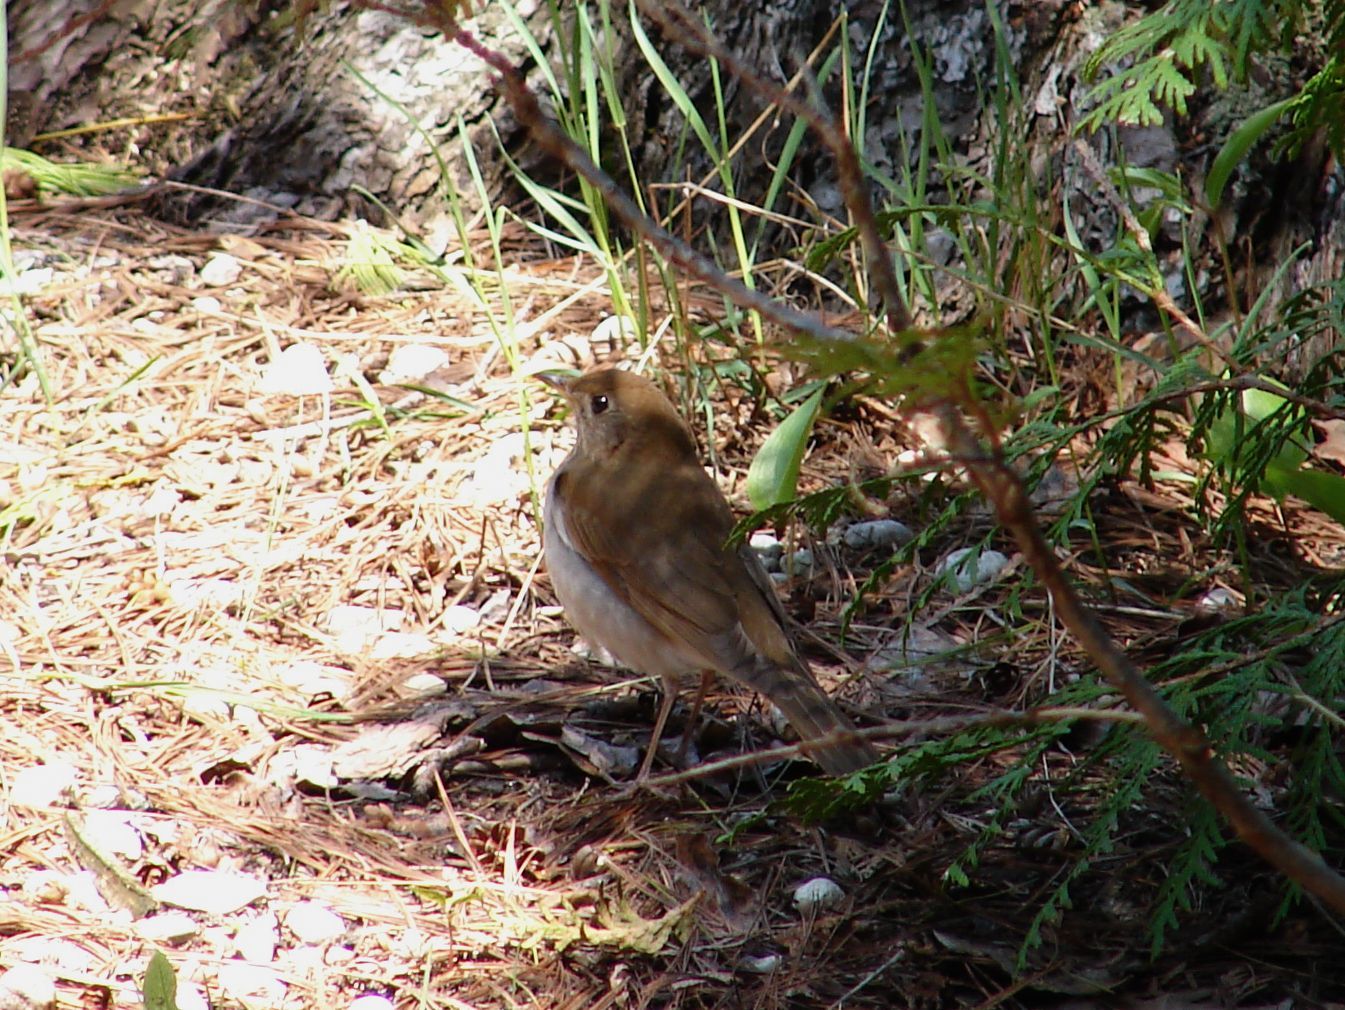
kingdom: Animalia
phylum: Chordata
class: Aves
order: Passeriformes
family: Turdidae
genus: Catharus
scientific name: Catharus fuscescens
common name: Veery
